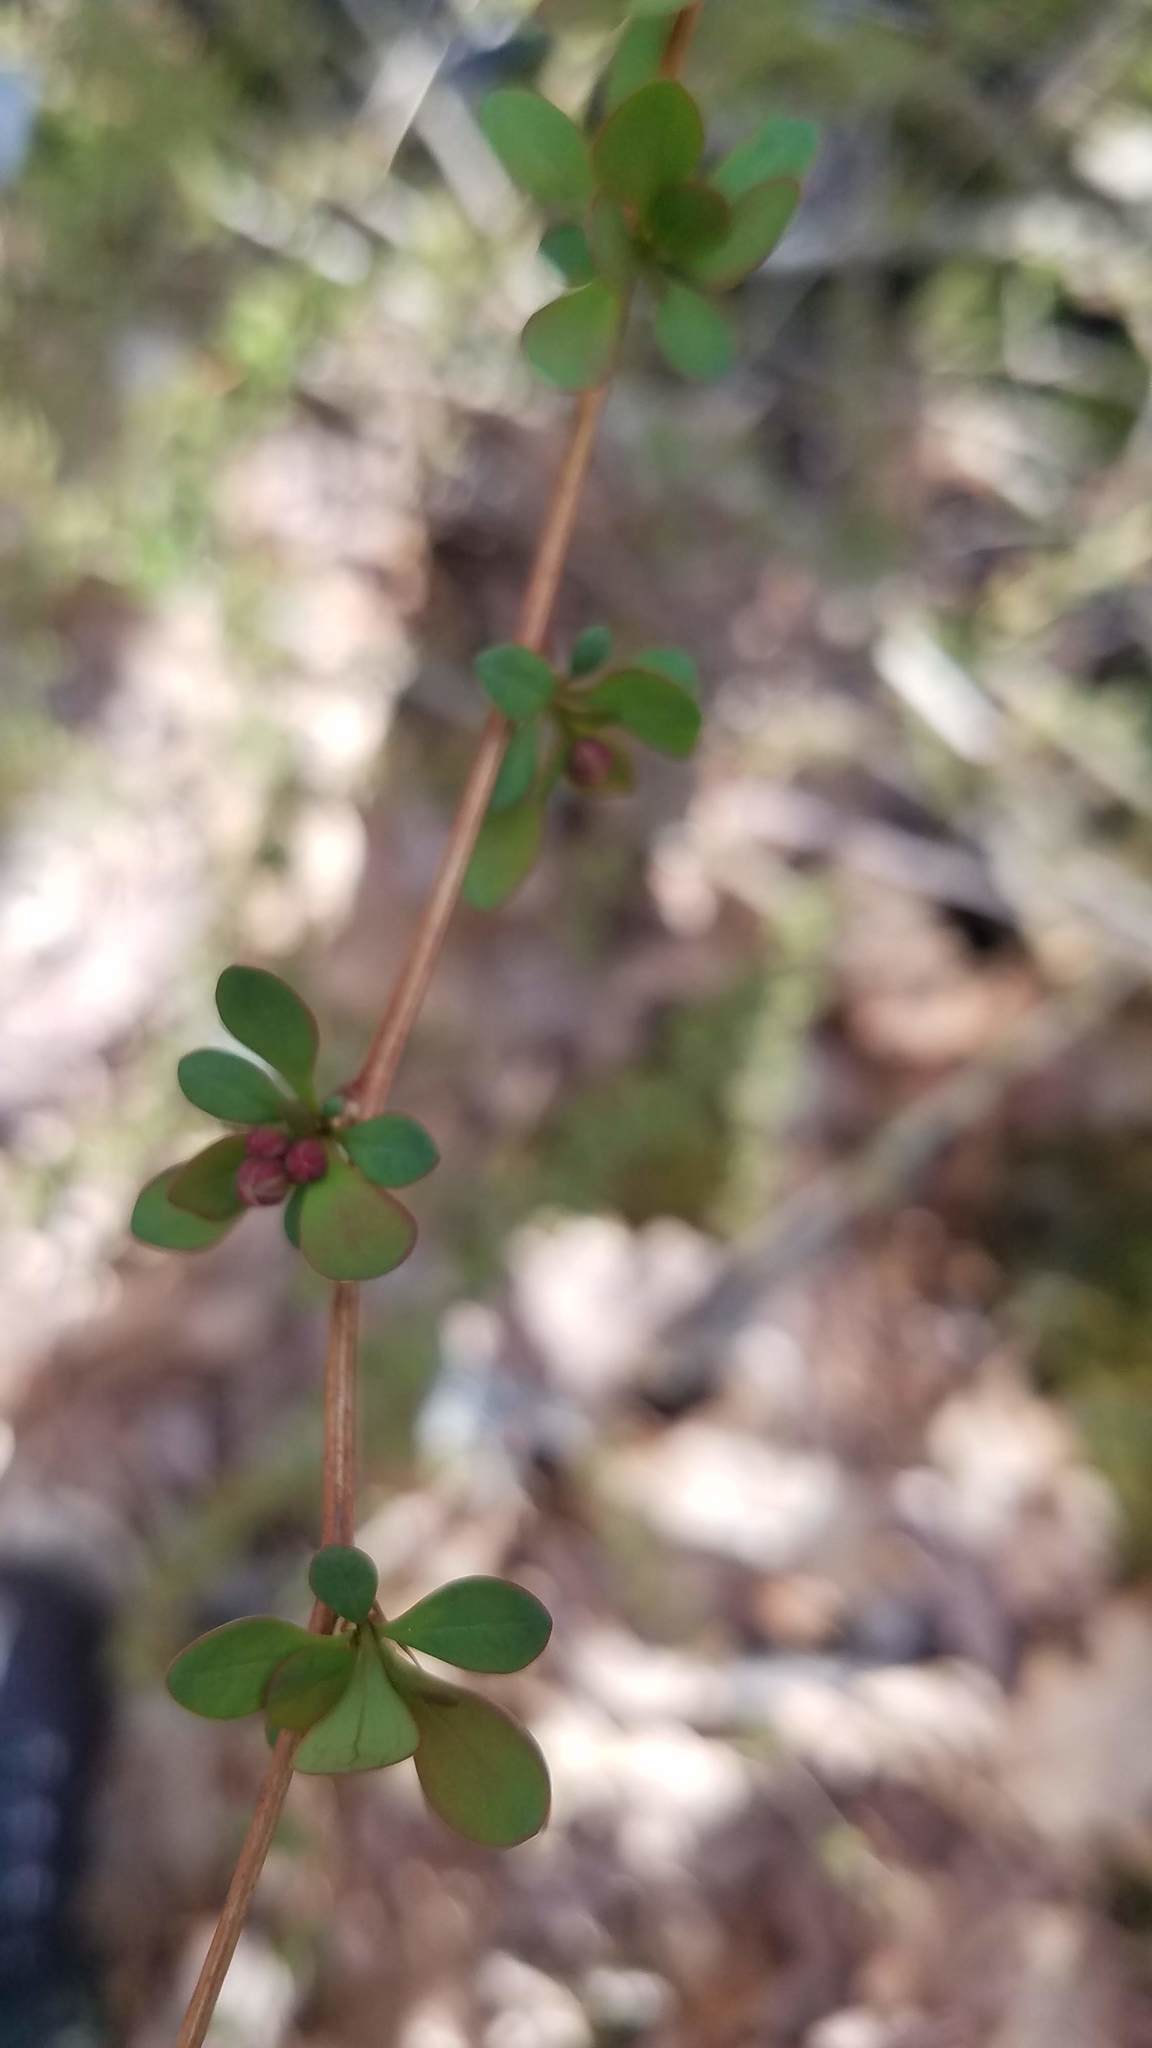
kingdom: Plantae
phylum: Tracheophyta
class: Magnoliopsida
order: Ranunculales
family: Berberidaceae
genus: Berberis
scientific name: Berberis thunbergii
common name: Japanese barberry
